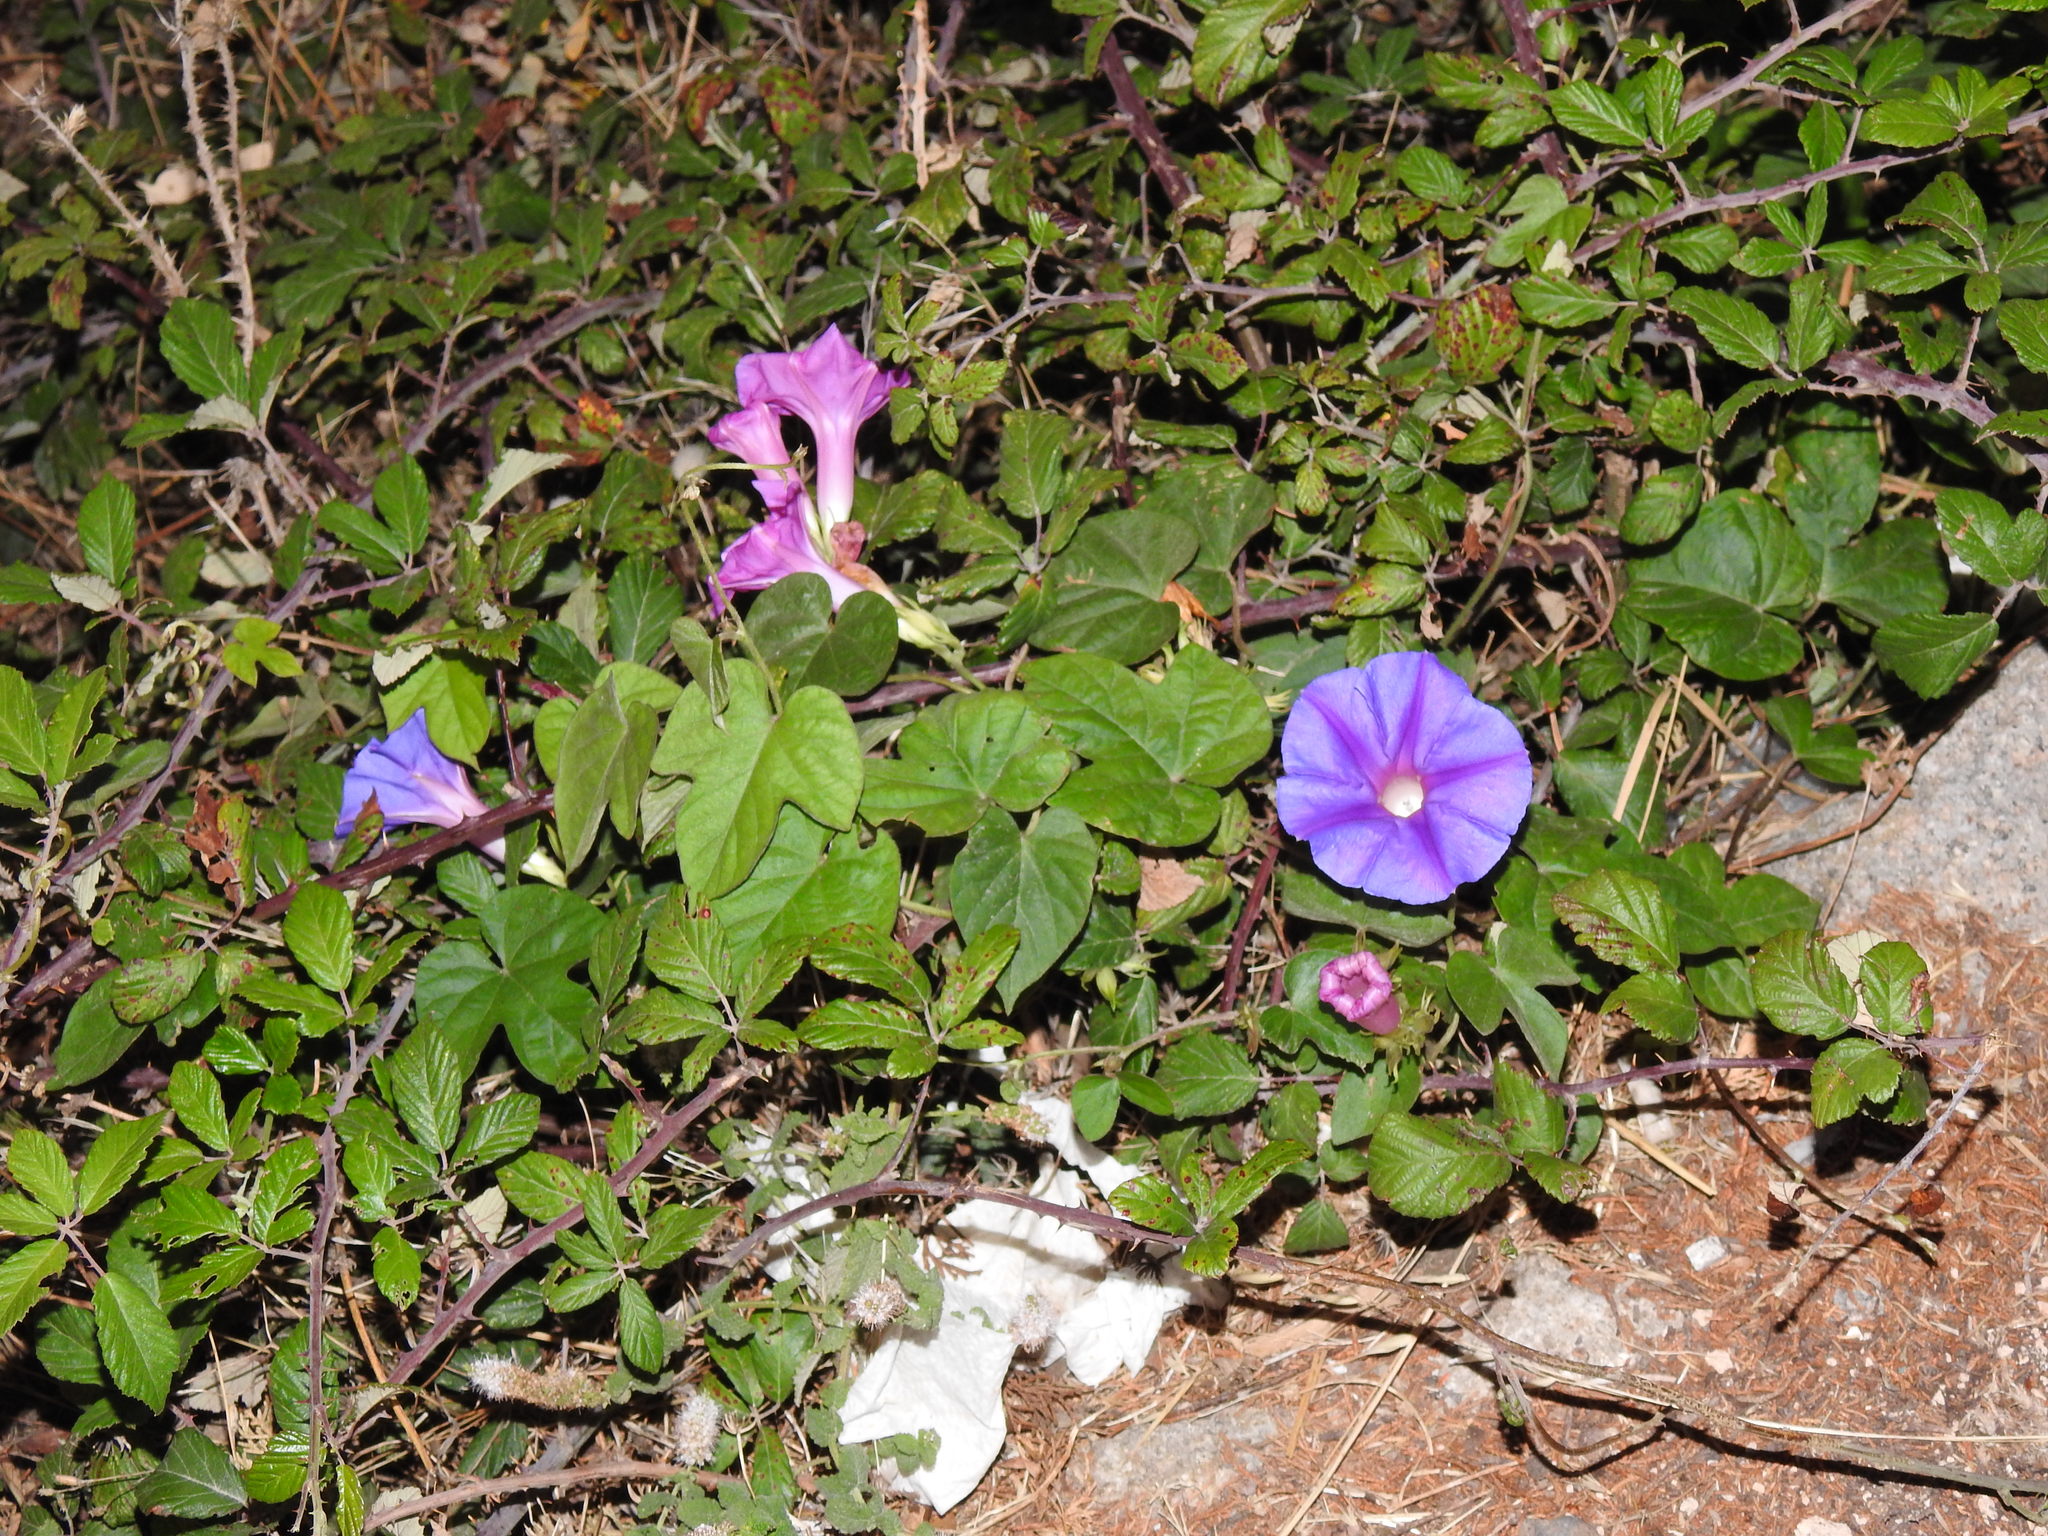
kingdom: Plantae
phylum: Tracheophyta
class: Magnoliopsida
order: Solanales
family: Convolvulaceae
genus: Ipomoea
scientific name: Ipomoea indica
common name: Blue dawnflower
